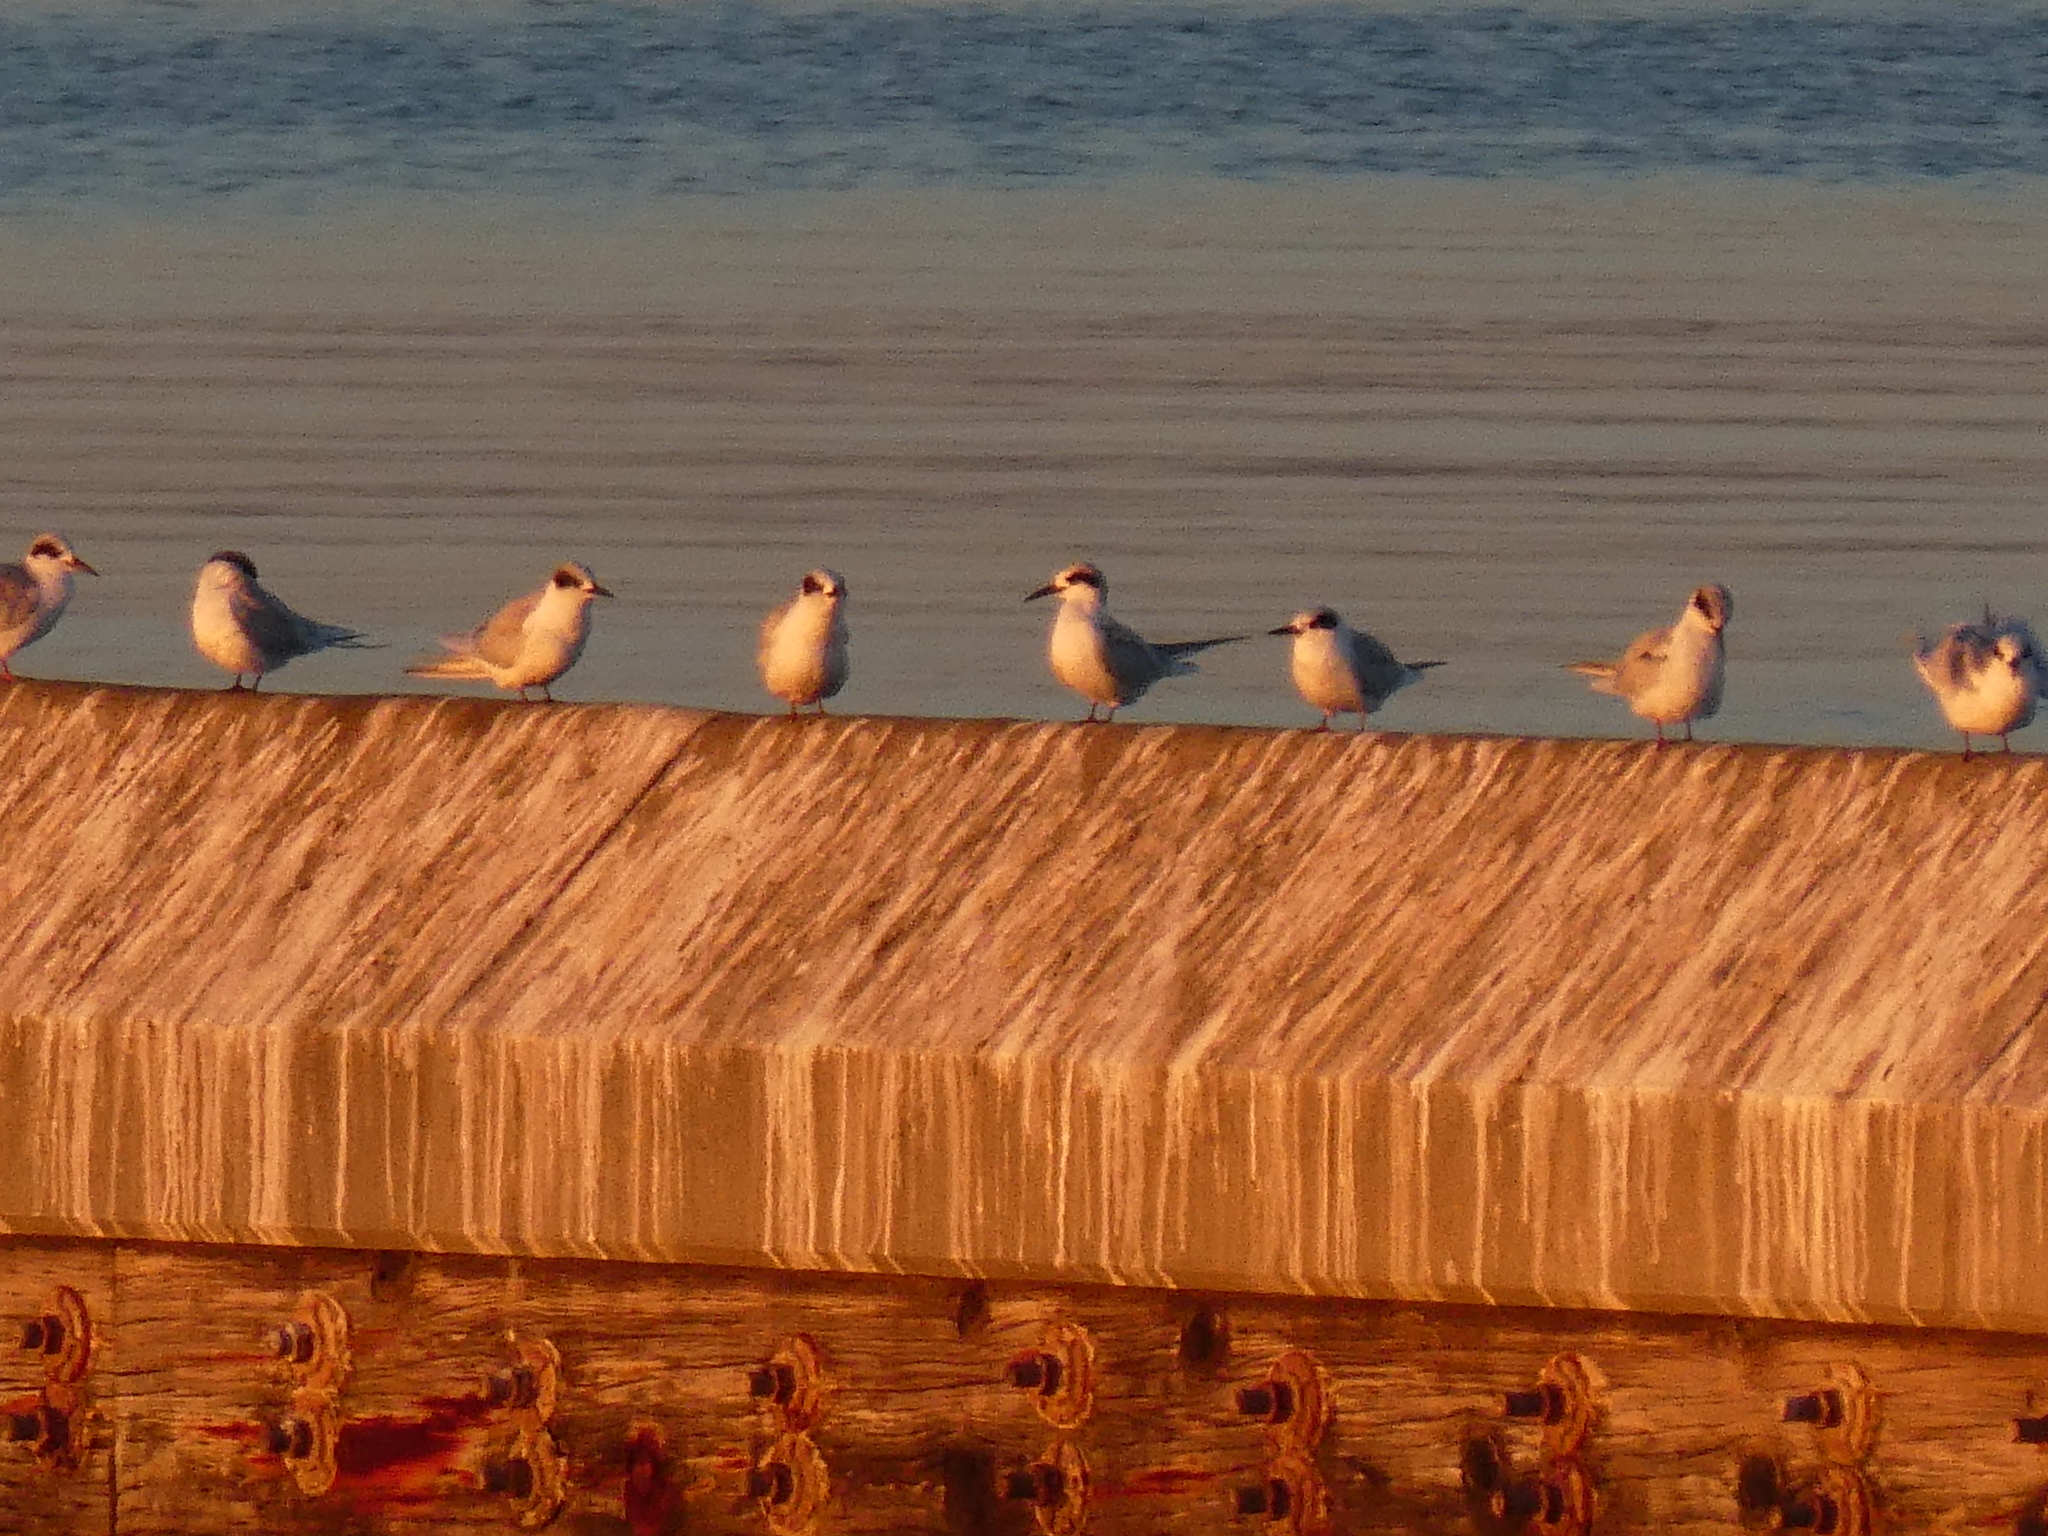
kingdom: Animalia
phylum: Chordata
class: Aves
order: Charadriiformes
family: Laridae
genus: Sterna
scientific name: Sterna forsteri
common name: Forster's tern
